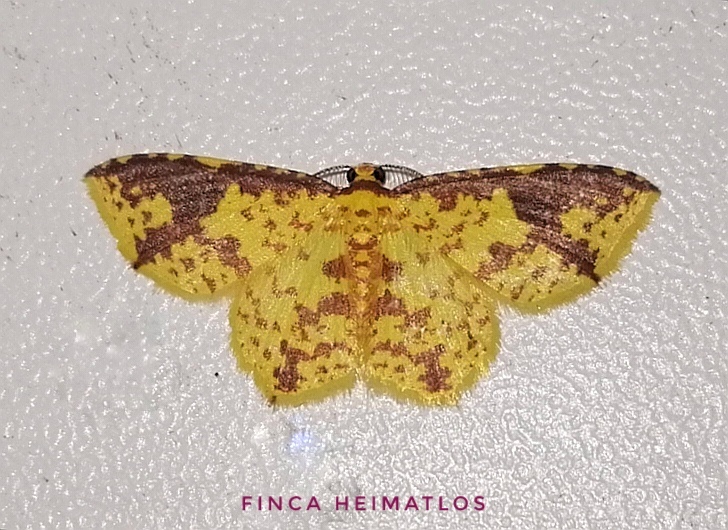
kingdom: Animalia
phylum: Arthropoda
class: Insecta
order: Lepidoptera
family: Geometridae
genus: Eois
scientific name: Eois heliadaria
